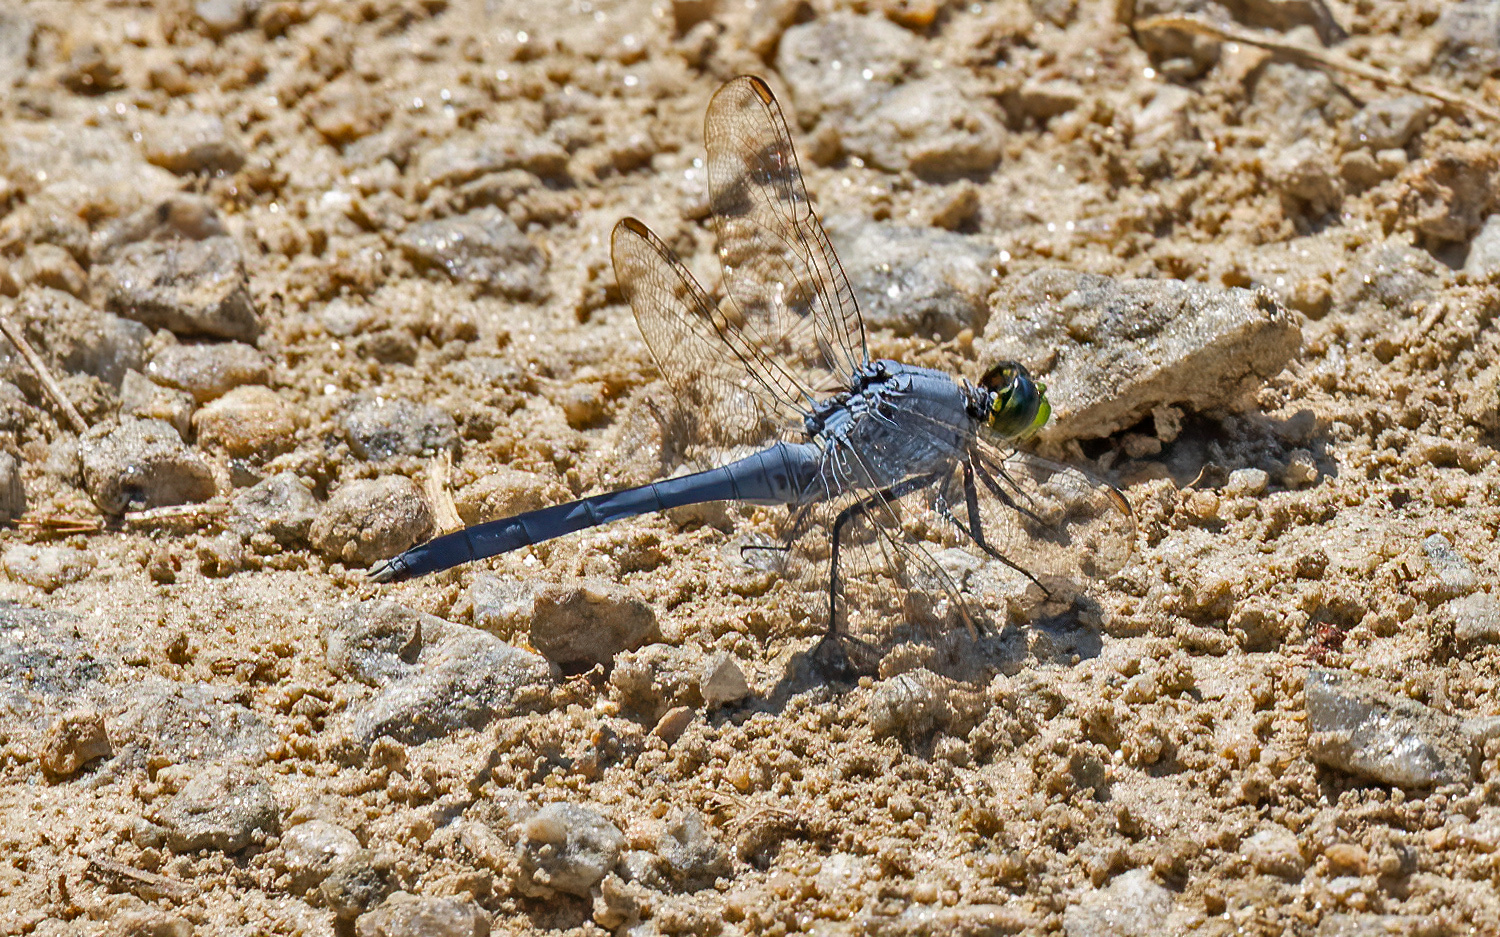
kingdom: Animalia
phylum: Arthropoda
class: Insecta
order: Odonata
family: Libellulidae
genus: Erythemis
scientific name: Erythemis simplicicollis
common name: Eastern pondhawk
